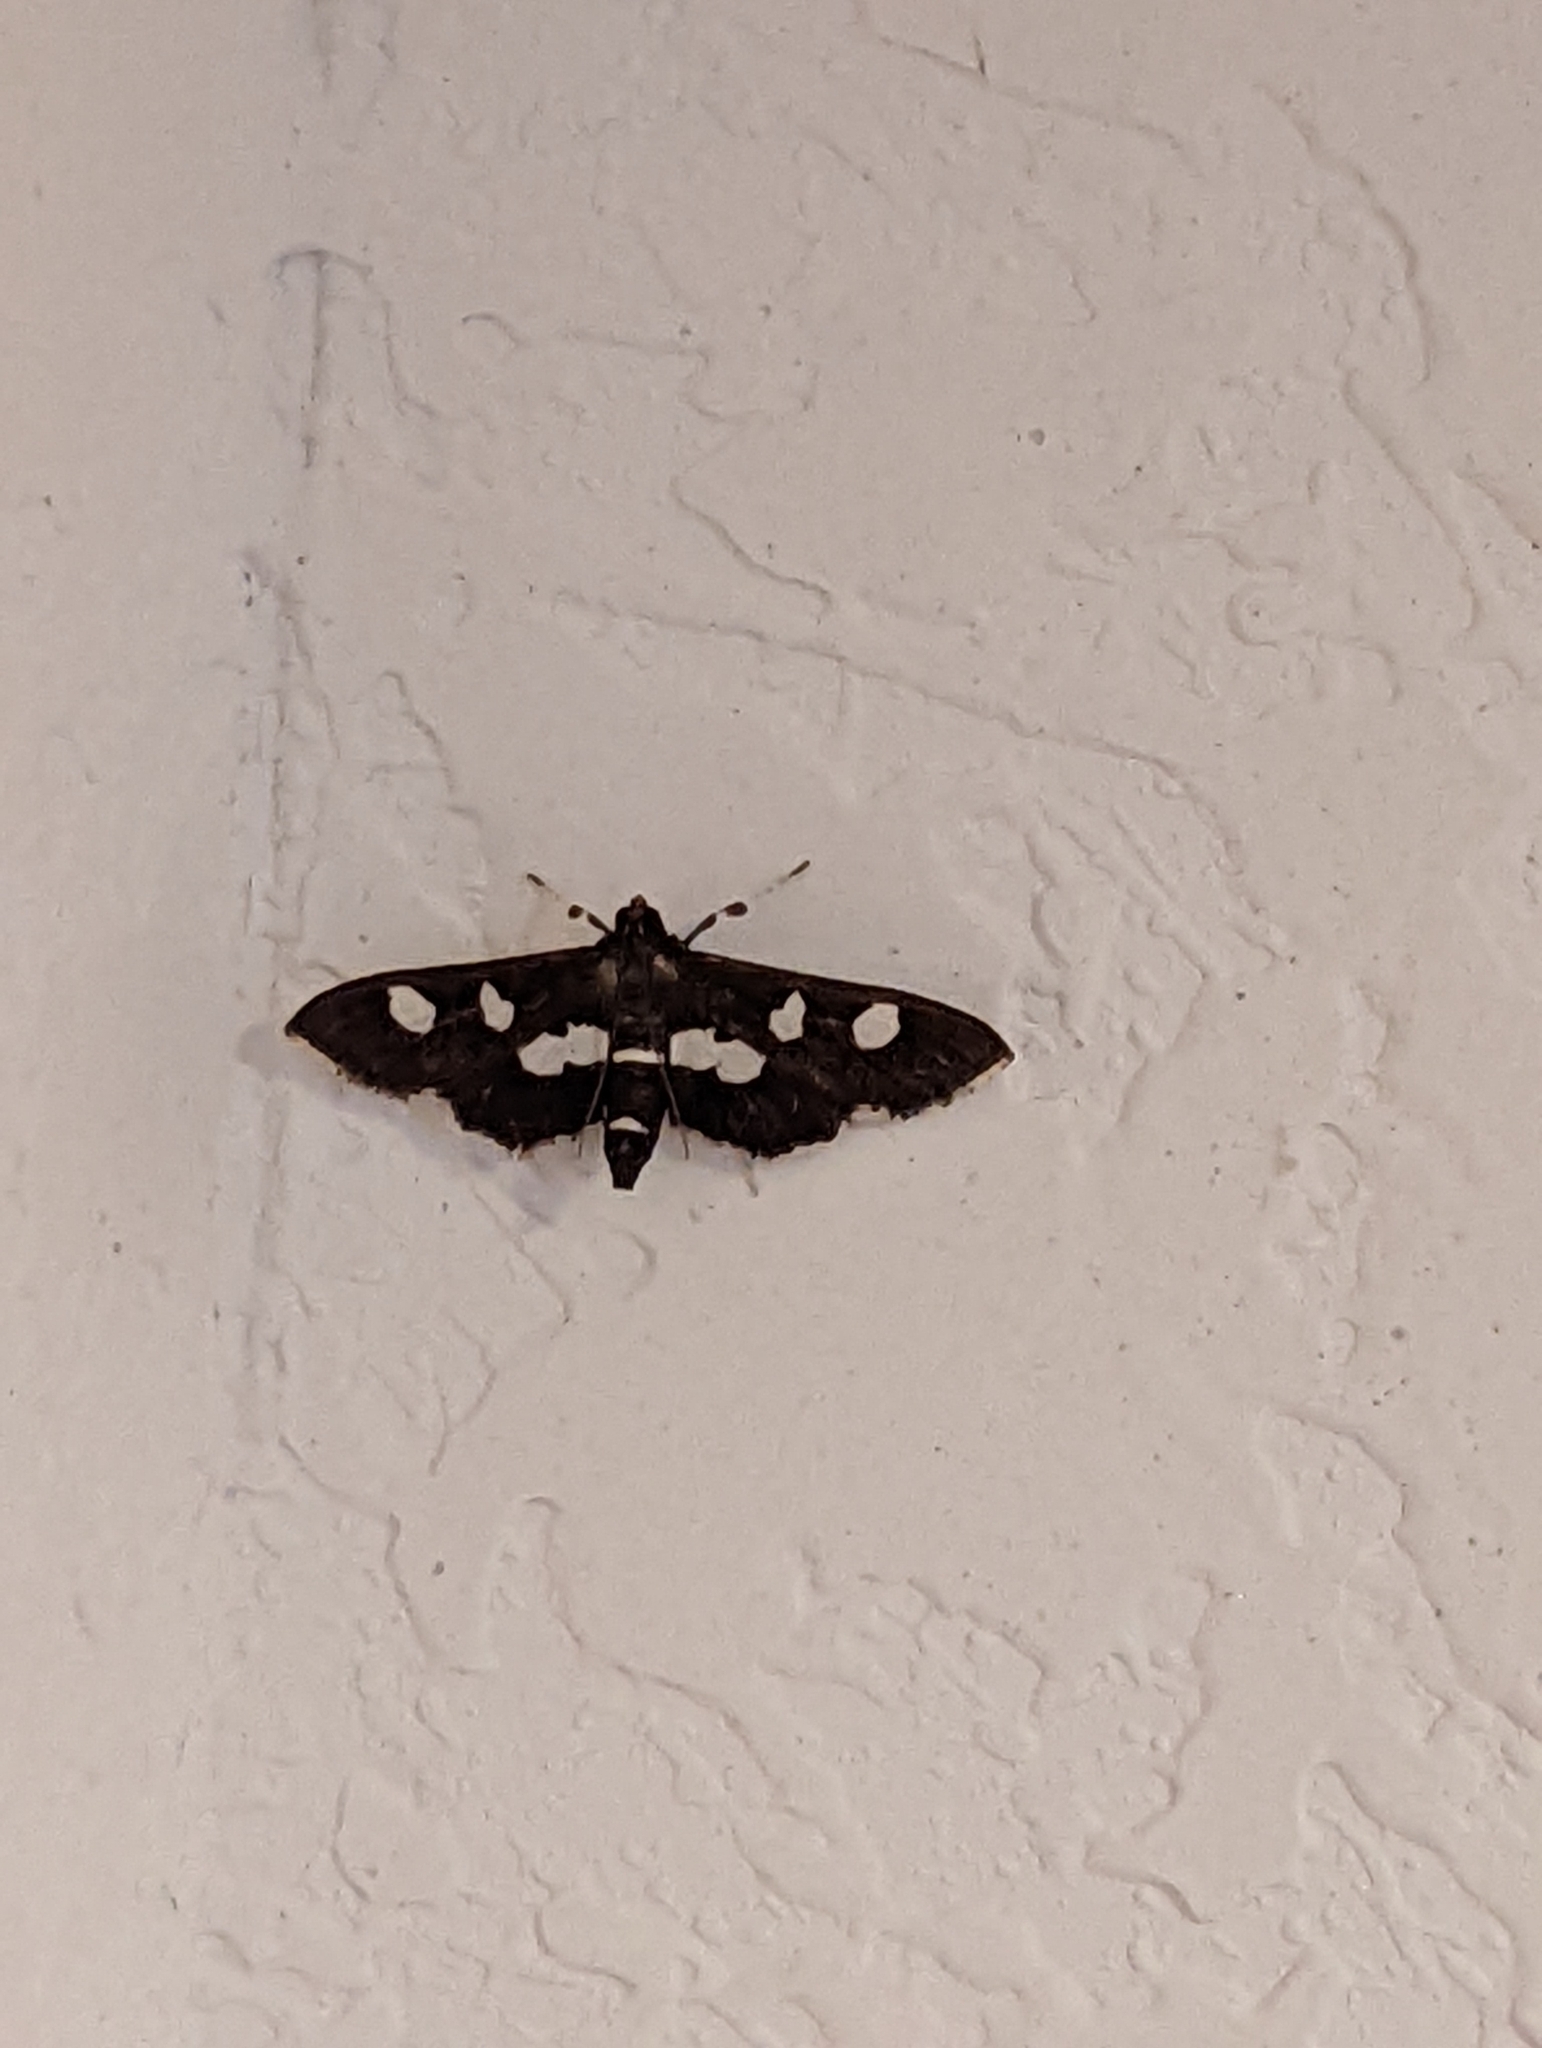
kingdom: Animalia
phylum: Arthropoda
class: Insecta
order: Lepidoptera
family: Crambidae
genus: Desmia
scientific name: Desmia funeralis
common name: Grape leaf folder moth
